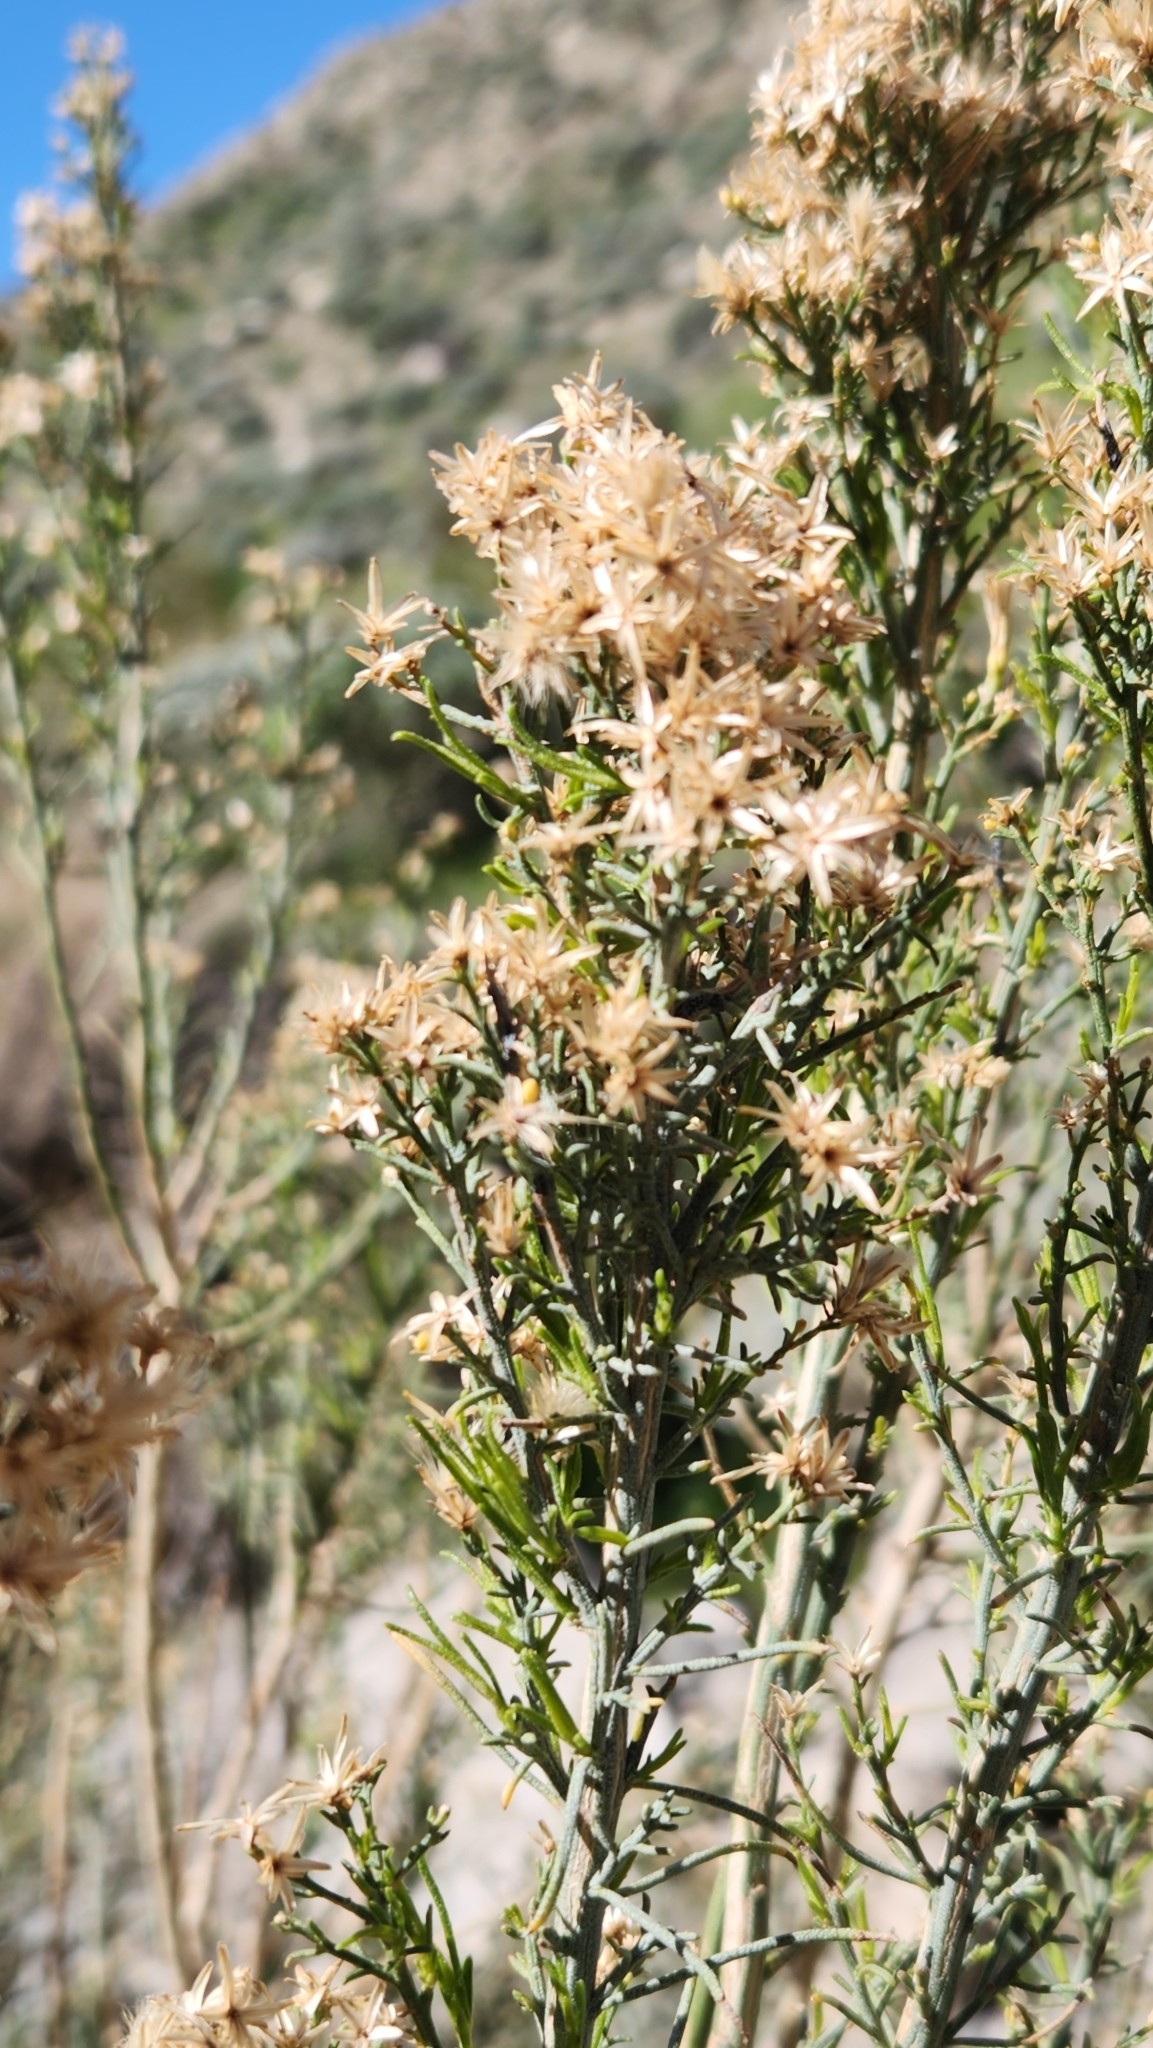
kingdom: Plantae
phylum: Tracheophyta
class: Magnoliopsida
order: Asterales
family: Asteraceae
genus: Ericameria
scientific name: Ericameria paniculata
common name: Punctate rabbitbrush
